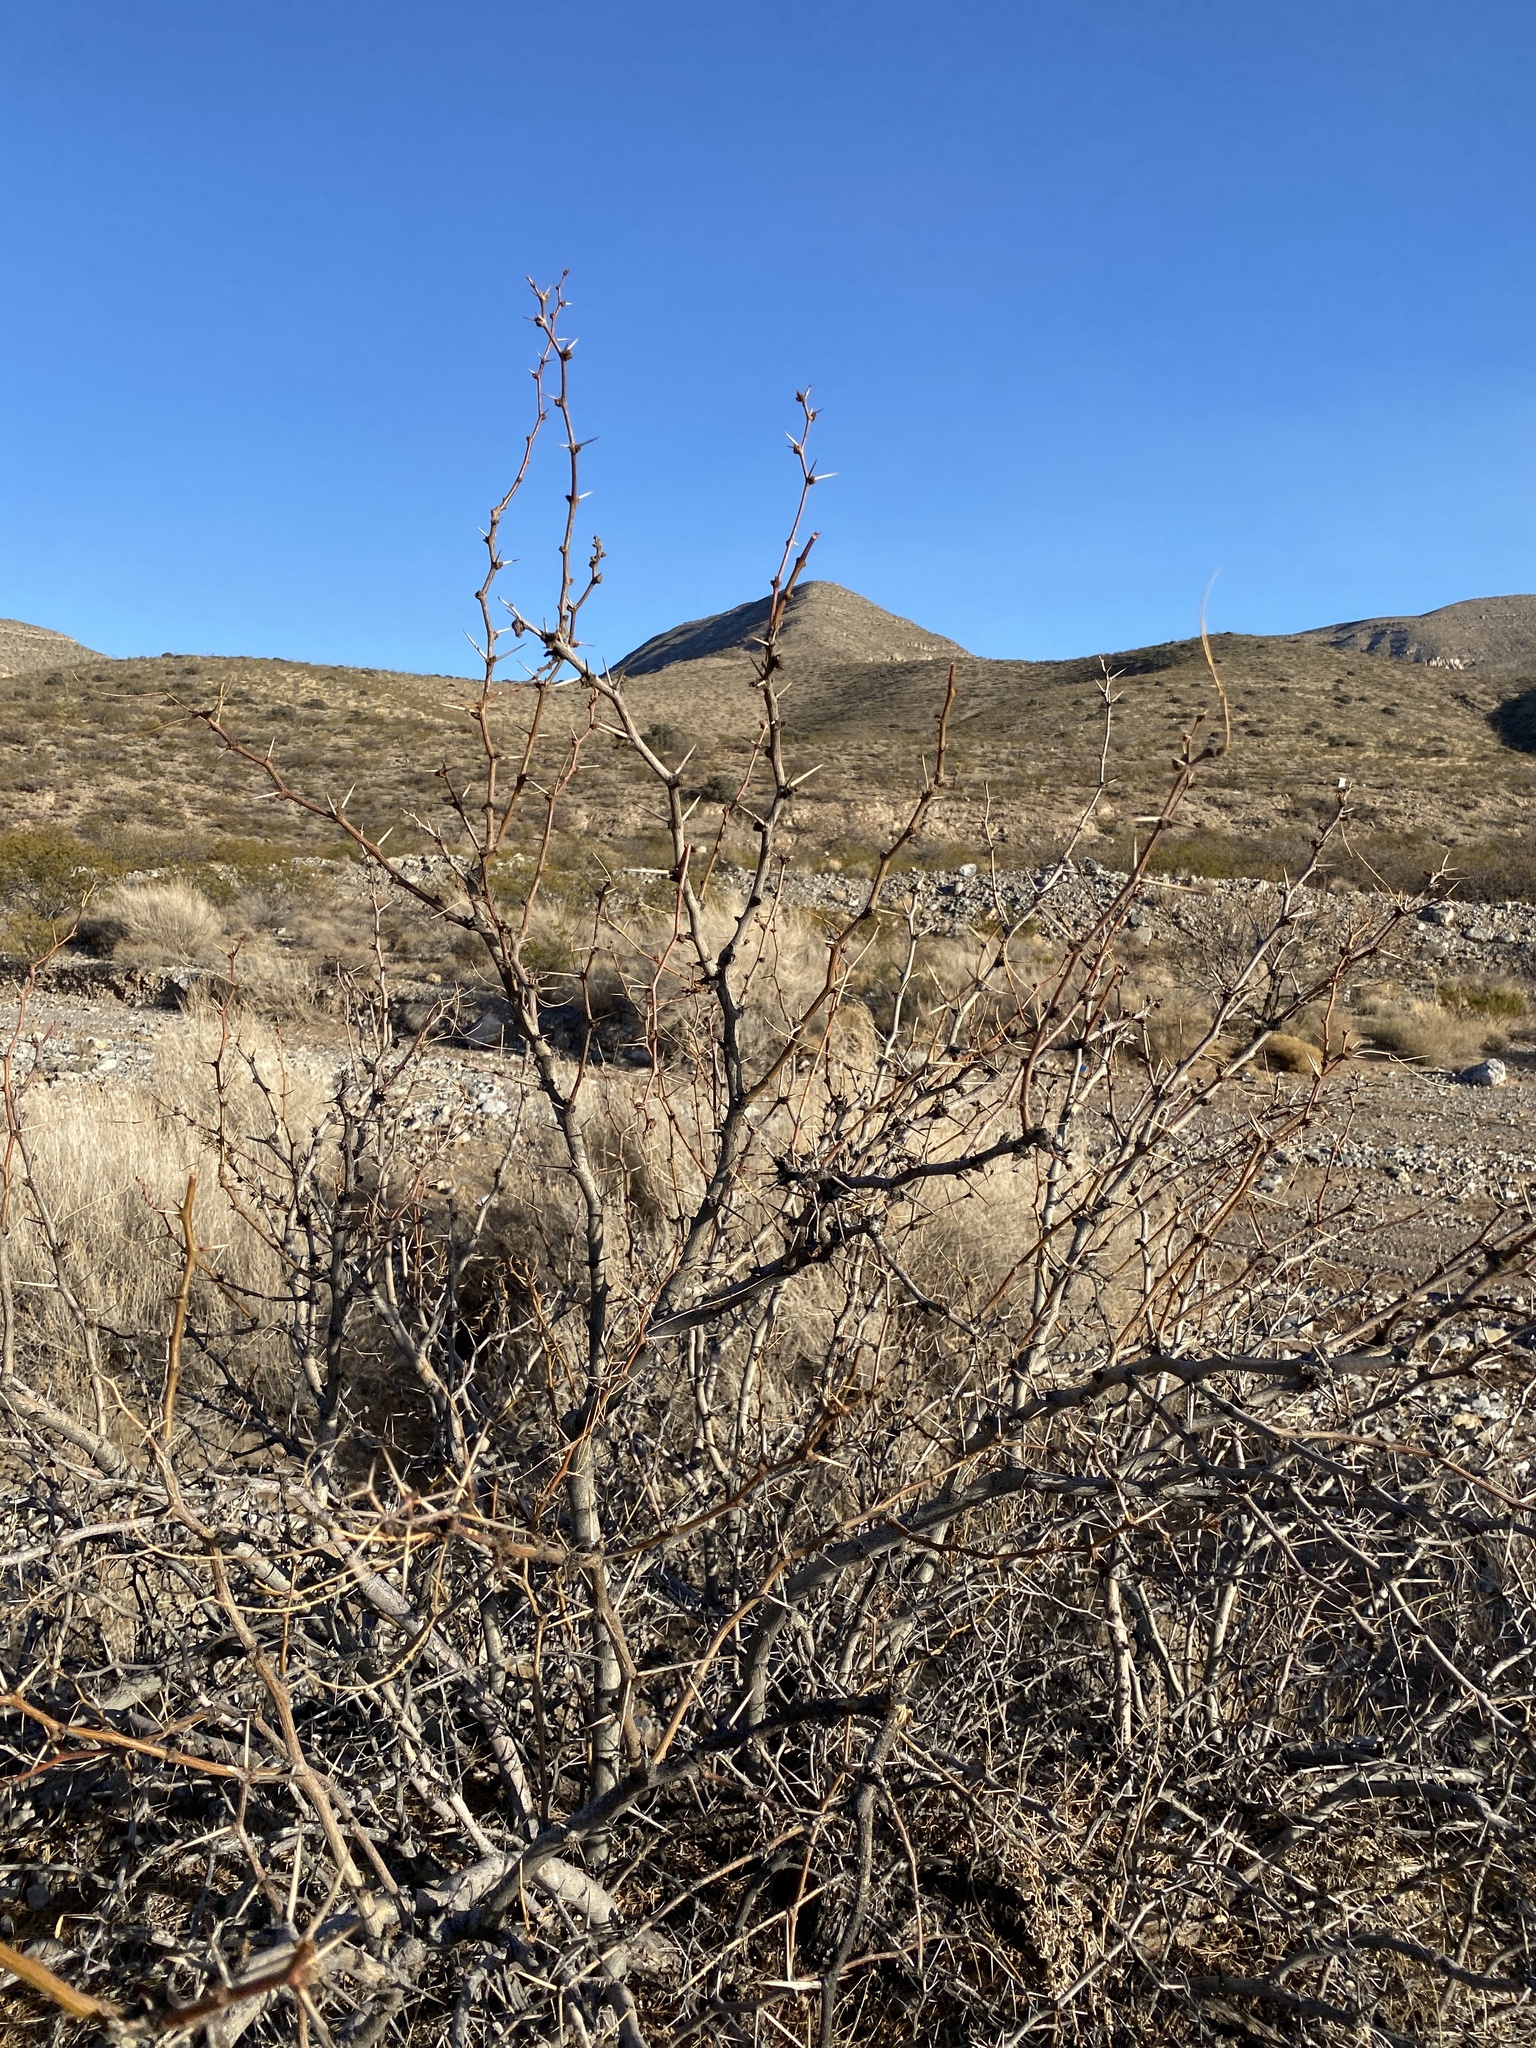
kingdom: Plantae
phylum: Tracheophyta
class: Magnoliopsida
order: Fabales
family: Fabaceae
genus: Prosopis
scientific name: Prosopis glandulosa
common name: Honey mesquite
